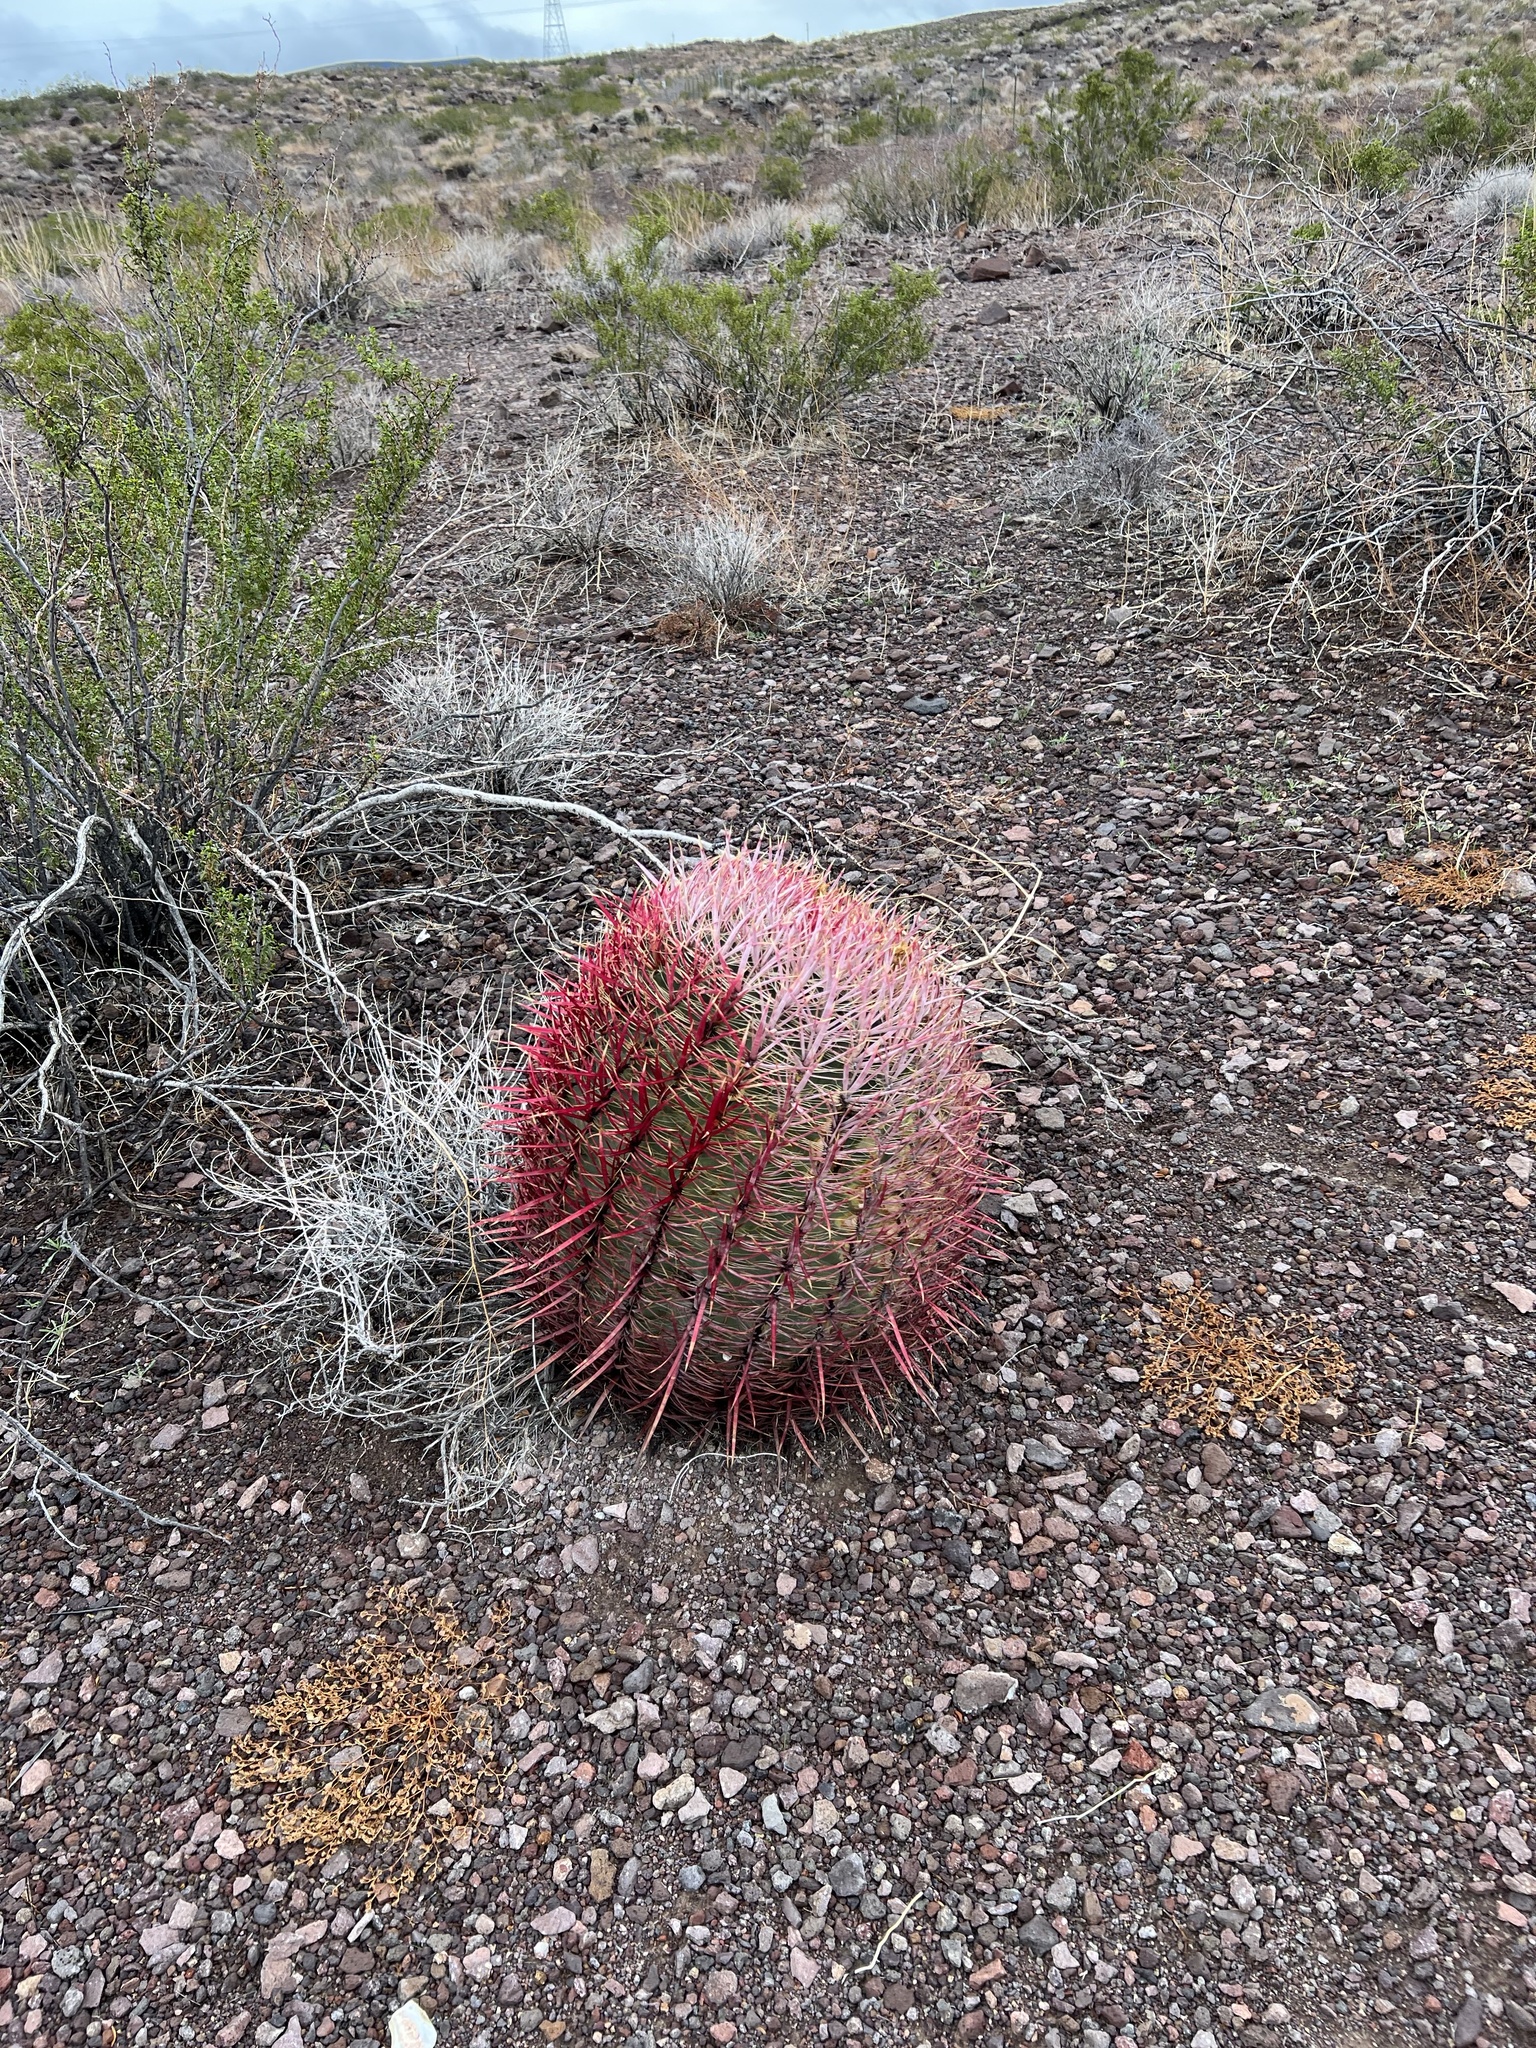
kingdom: Plantae
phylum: Tracheophyta
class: Magnoliopsida
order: Caryophyllales
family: Cactaceae
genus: Ferocactus
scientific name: Ferocactus cylindraceus
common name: California barrel cactus
